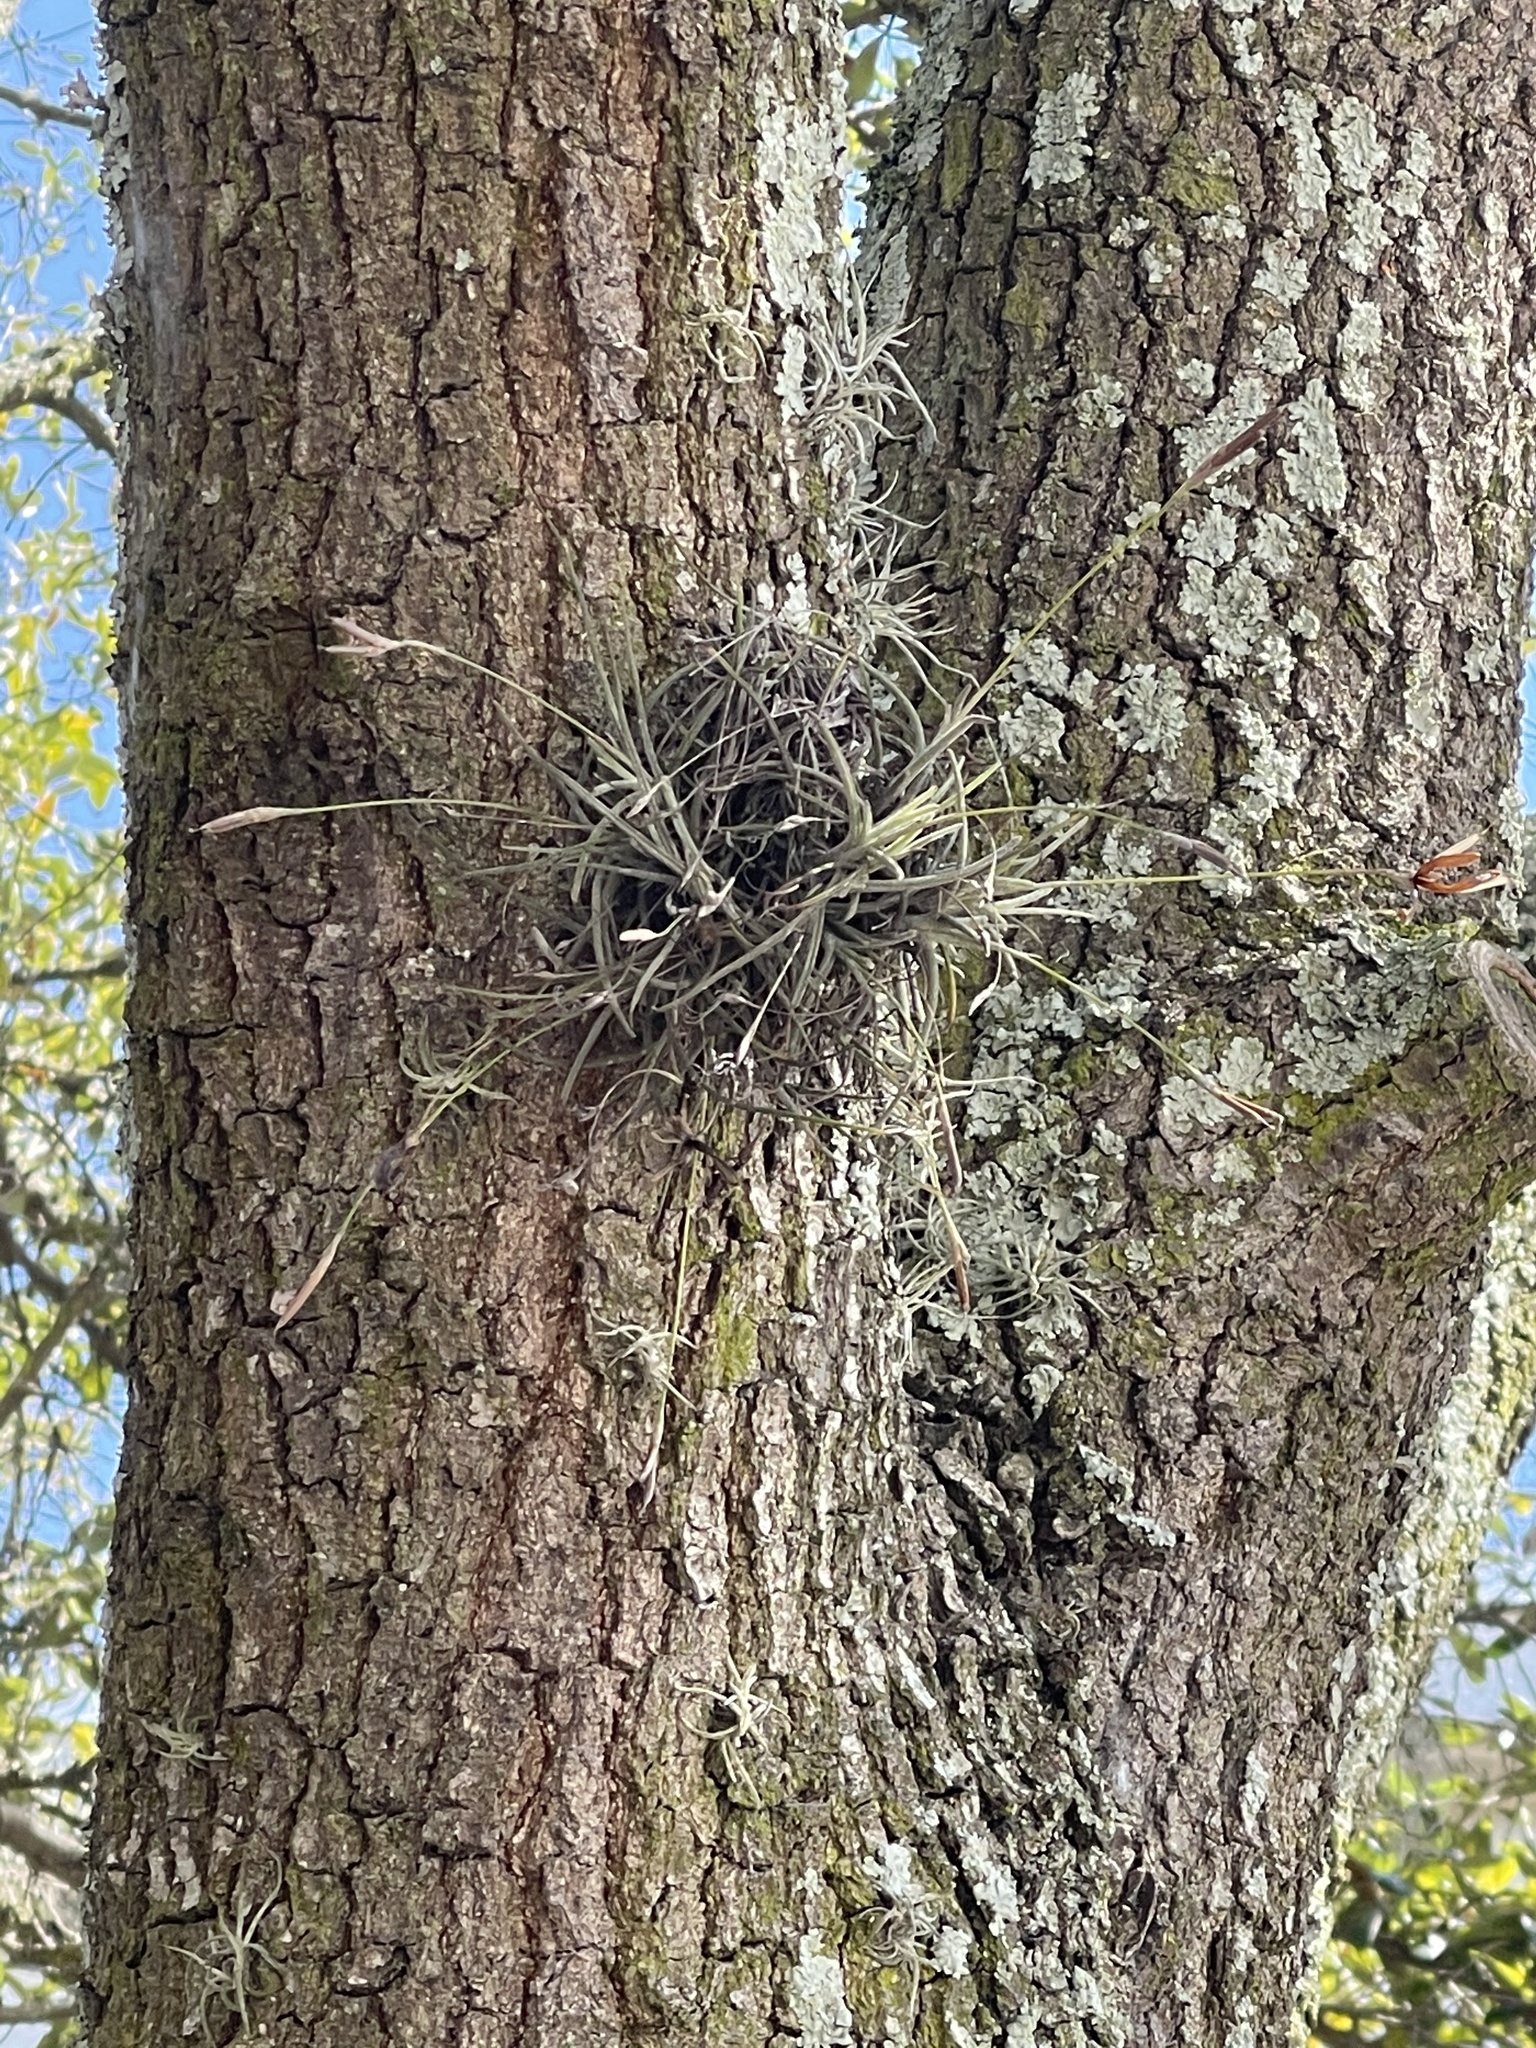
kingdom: Plantae
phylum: Tracheophyta
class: Liliopsida
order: Poales
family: Bromeliaceae
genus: Tillandsia
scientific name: Tillandsia recurvata
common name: Small ballmoss
